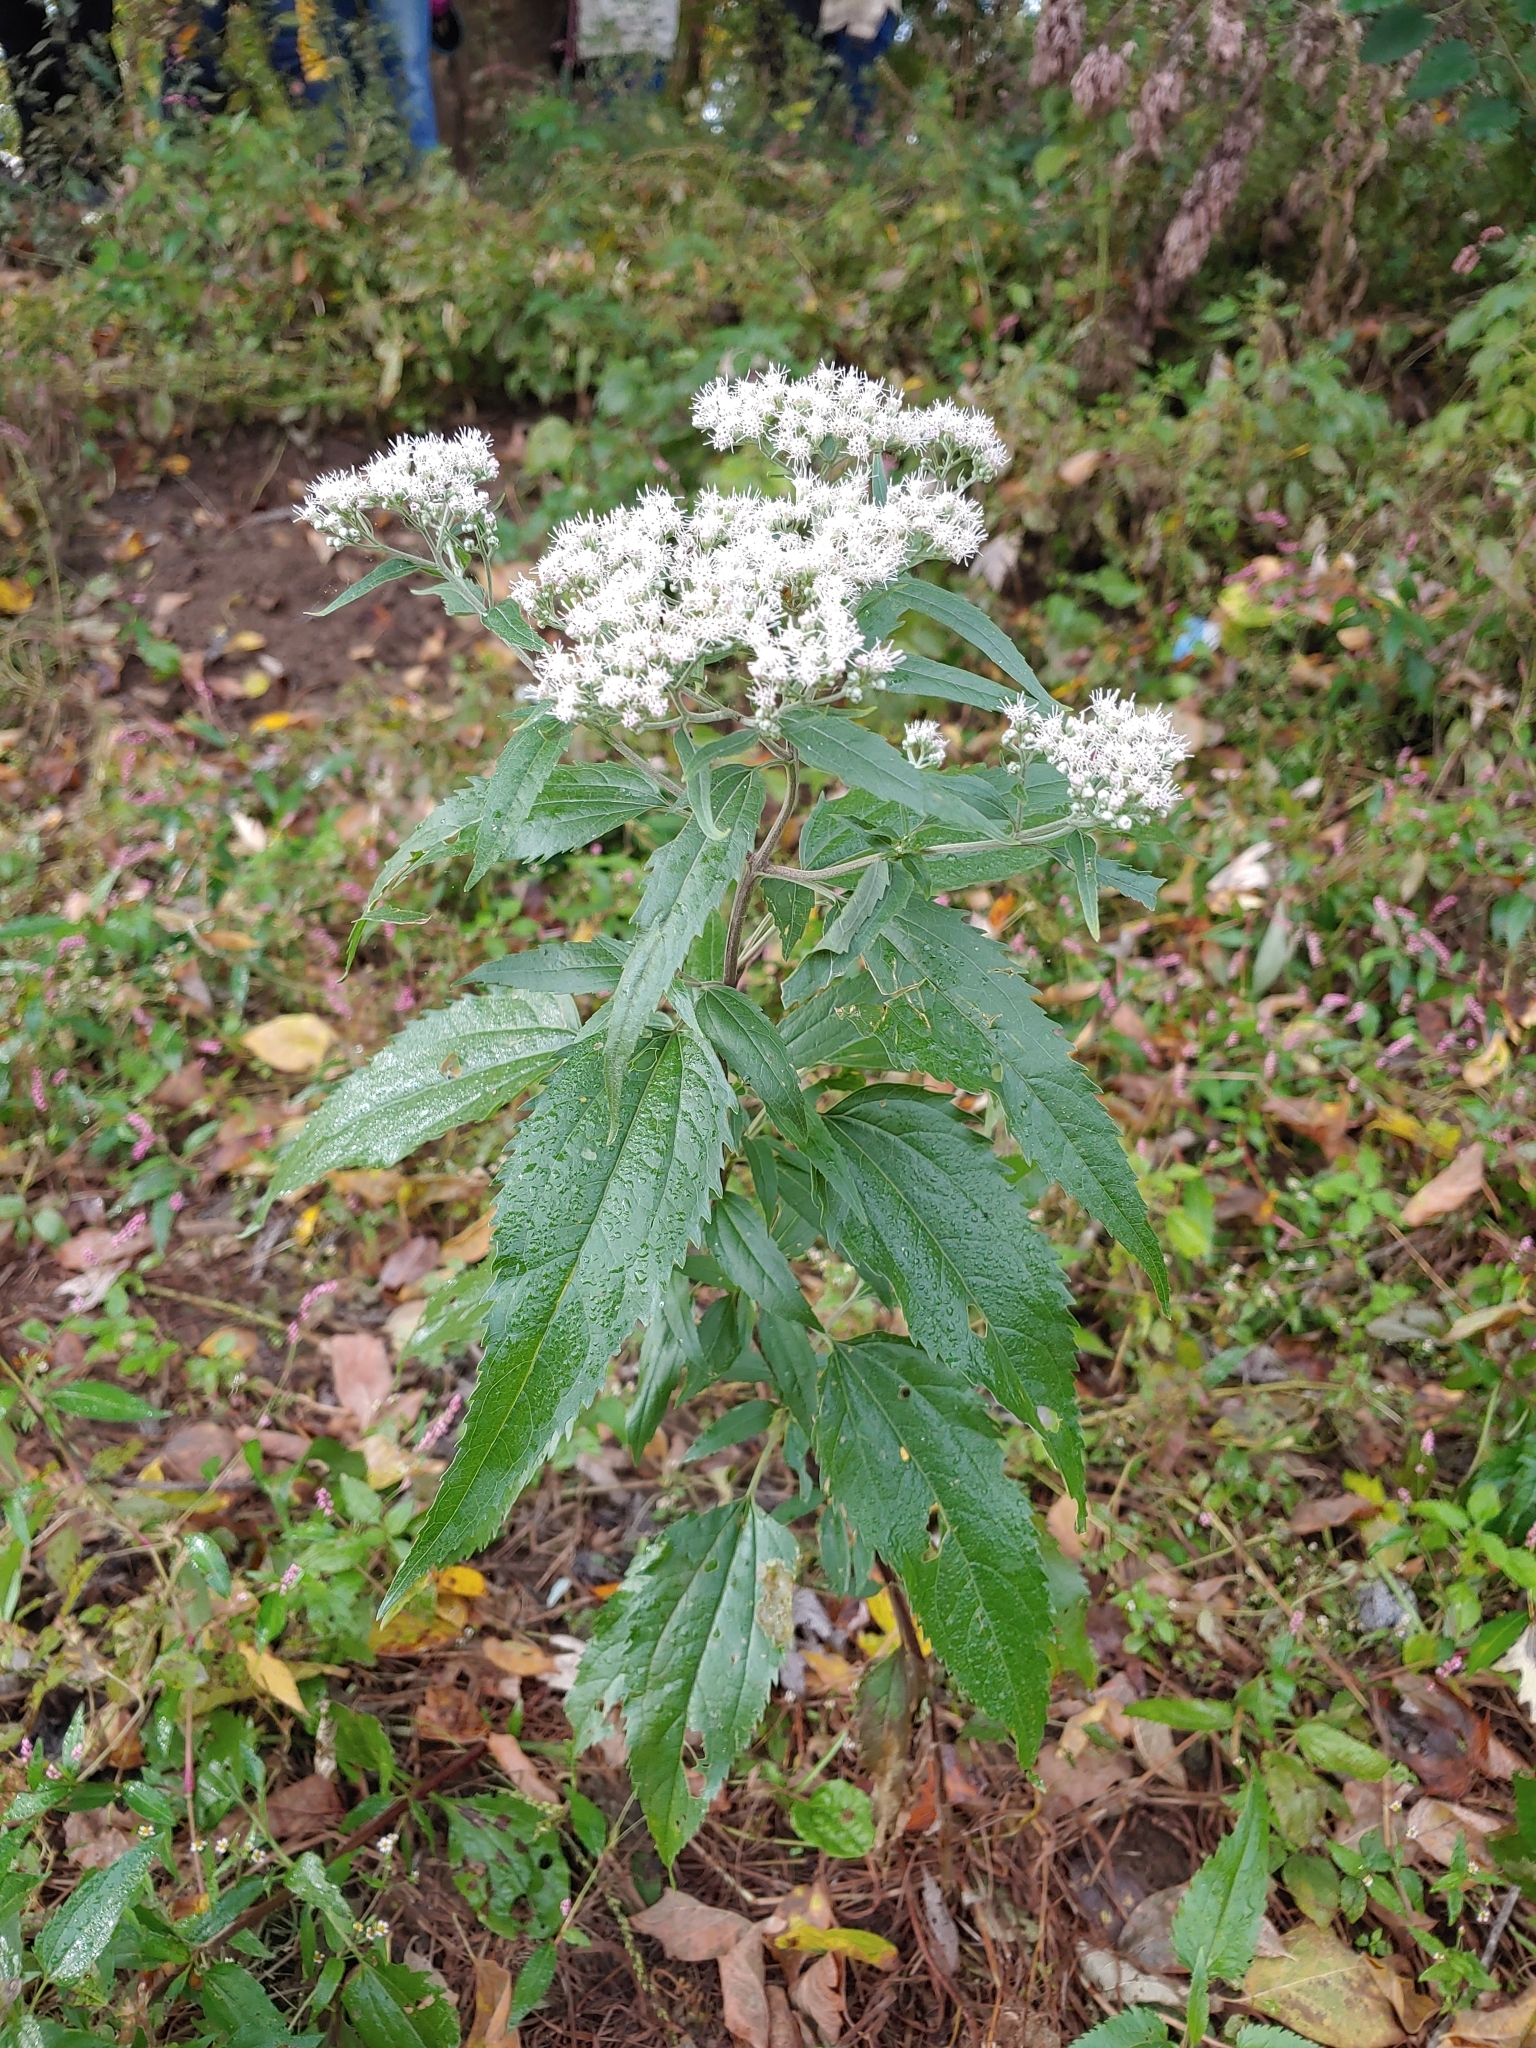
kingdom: Plantae
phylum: Tracheophyta
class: Magnoliopsida
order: Asterales
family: Asteraceae
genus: Eupatorium
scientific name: Eupatorium serotinum
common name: Late boneset
